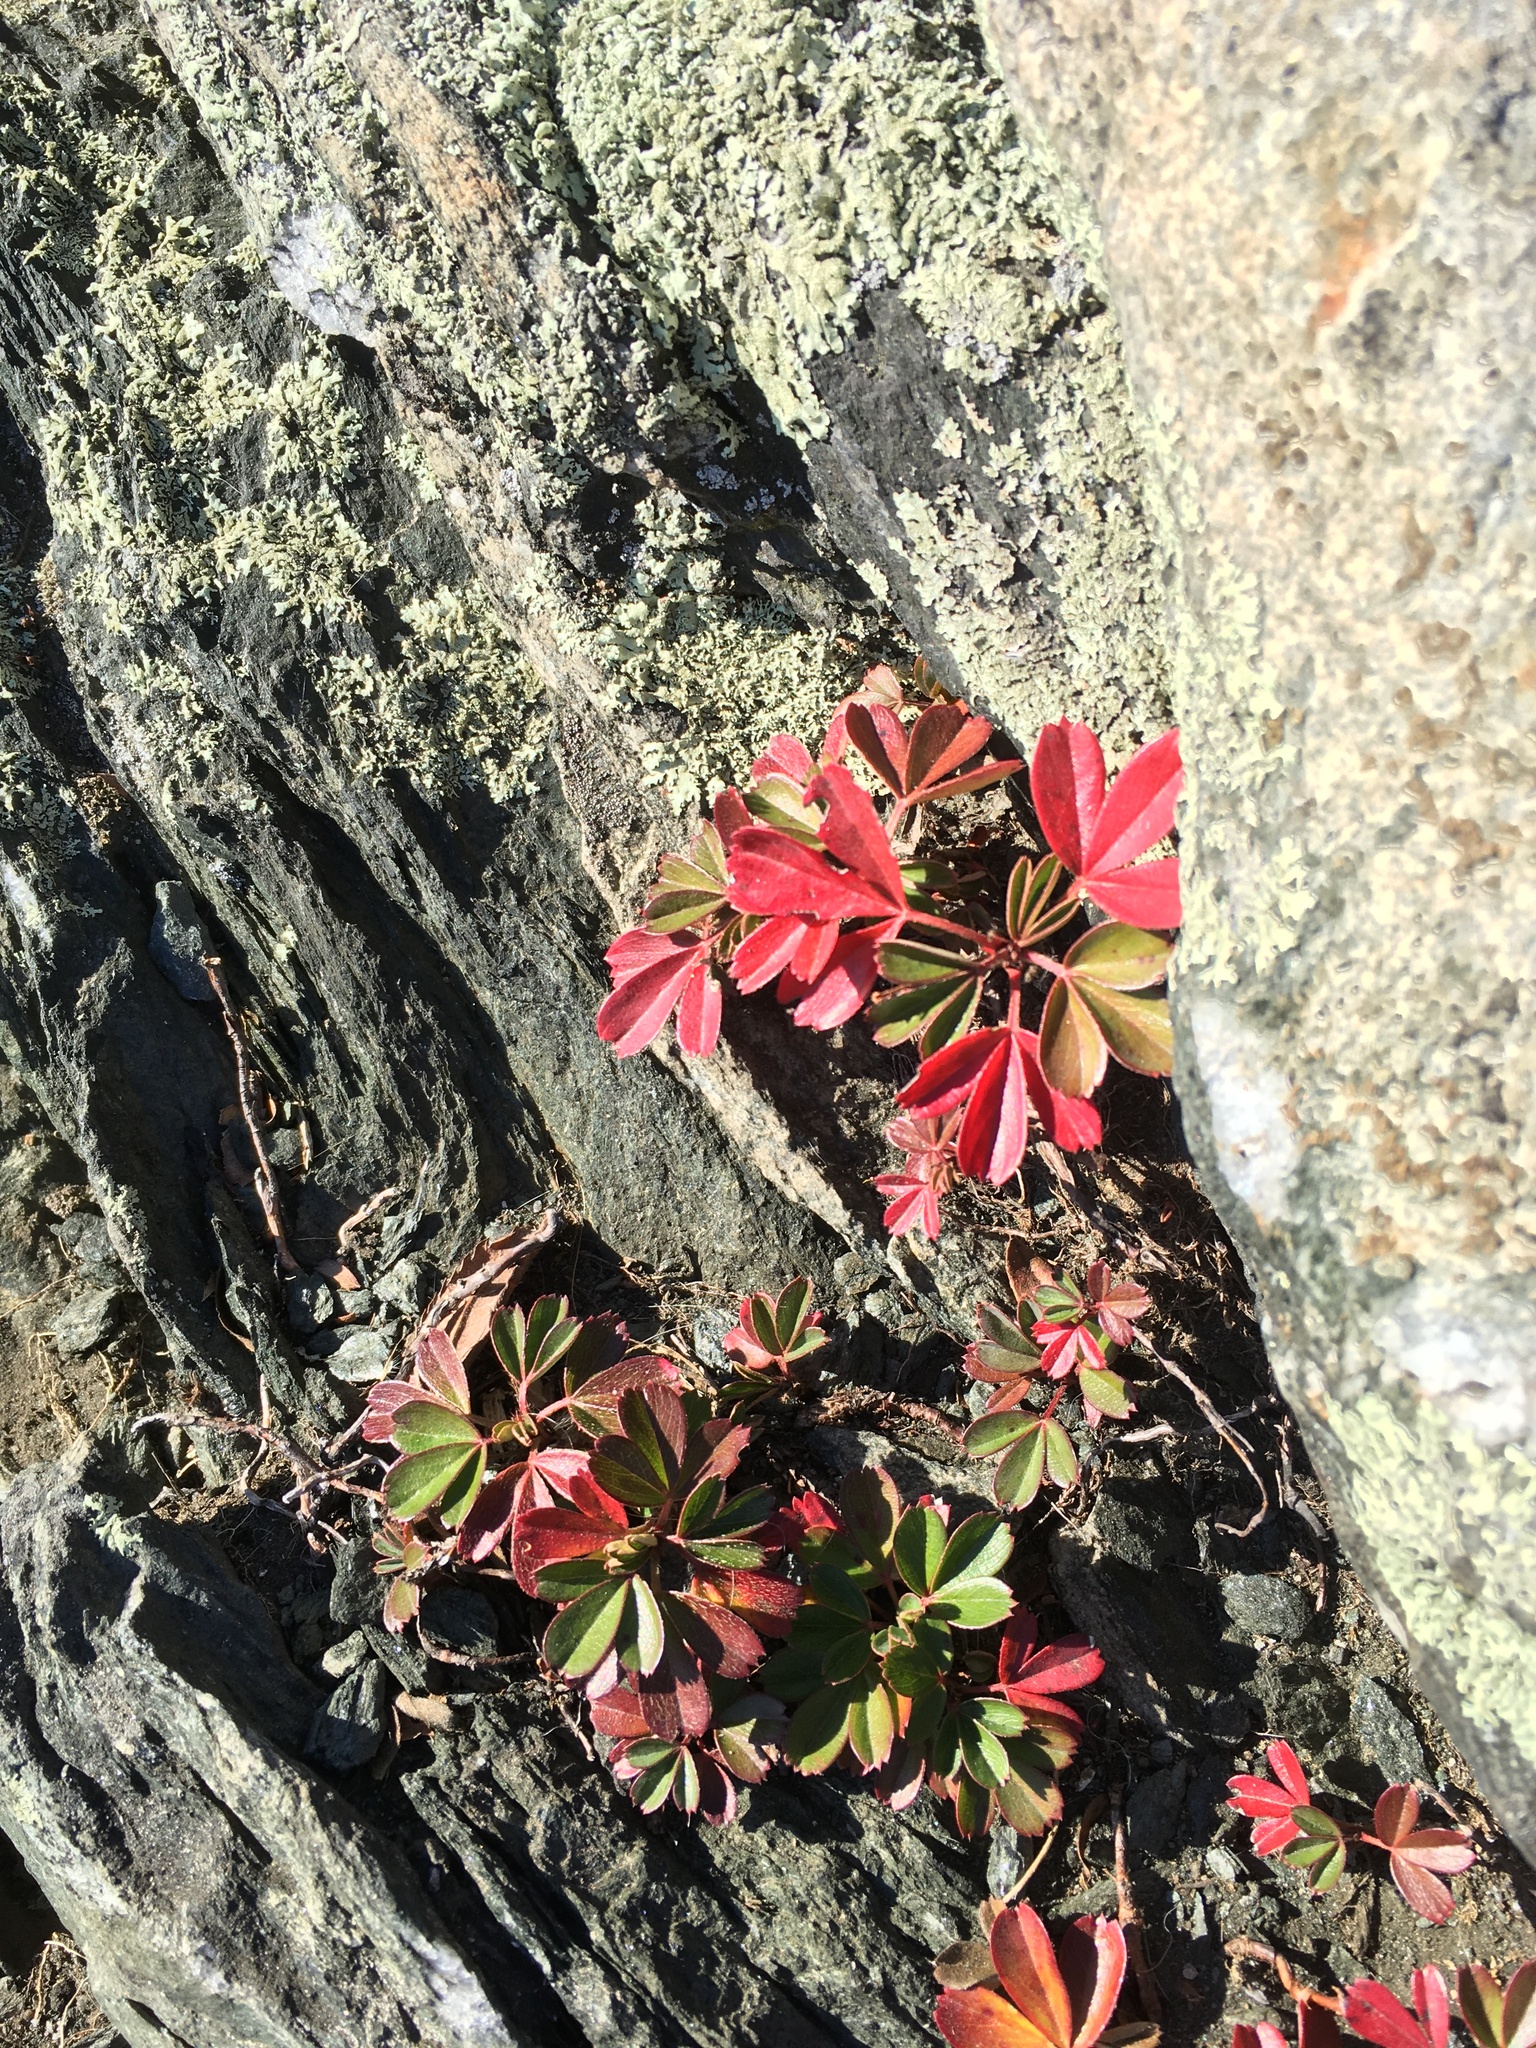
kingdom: Plantae
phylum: Tracheophyta
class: Magnoliopsida
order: Rosales
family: Rosaceae
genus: Sibbaldia
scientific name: Sibbaldia tridentata
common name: Three-toothed cinquefoil
